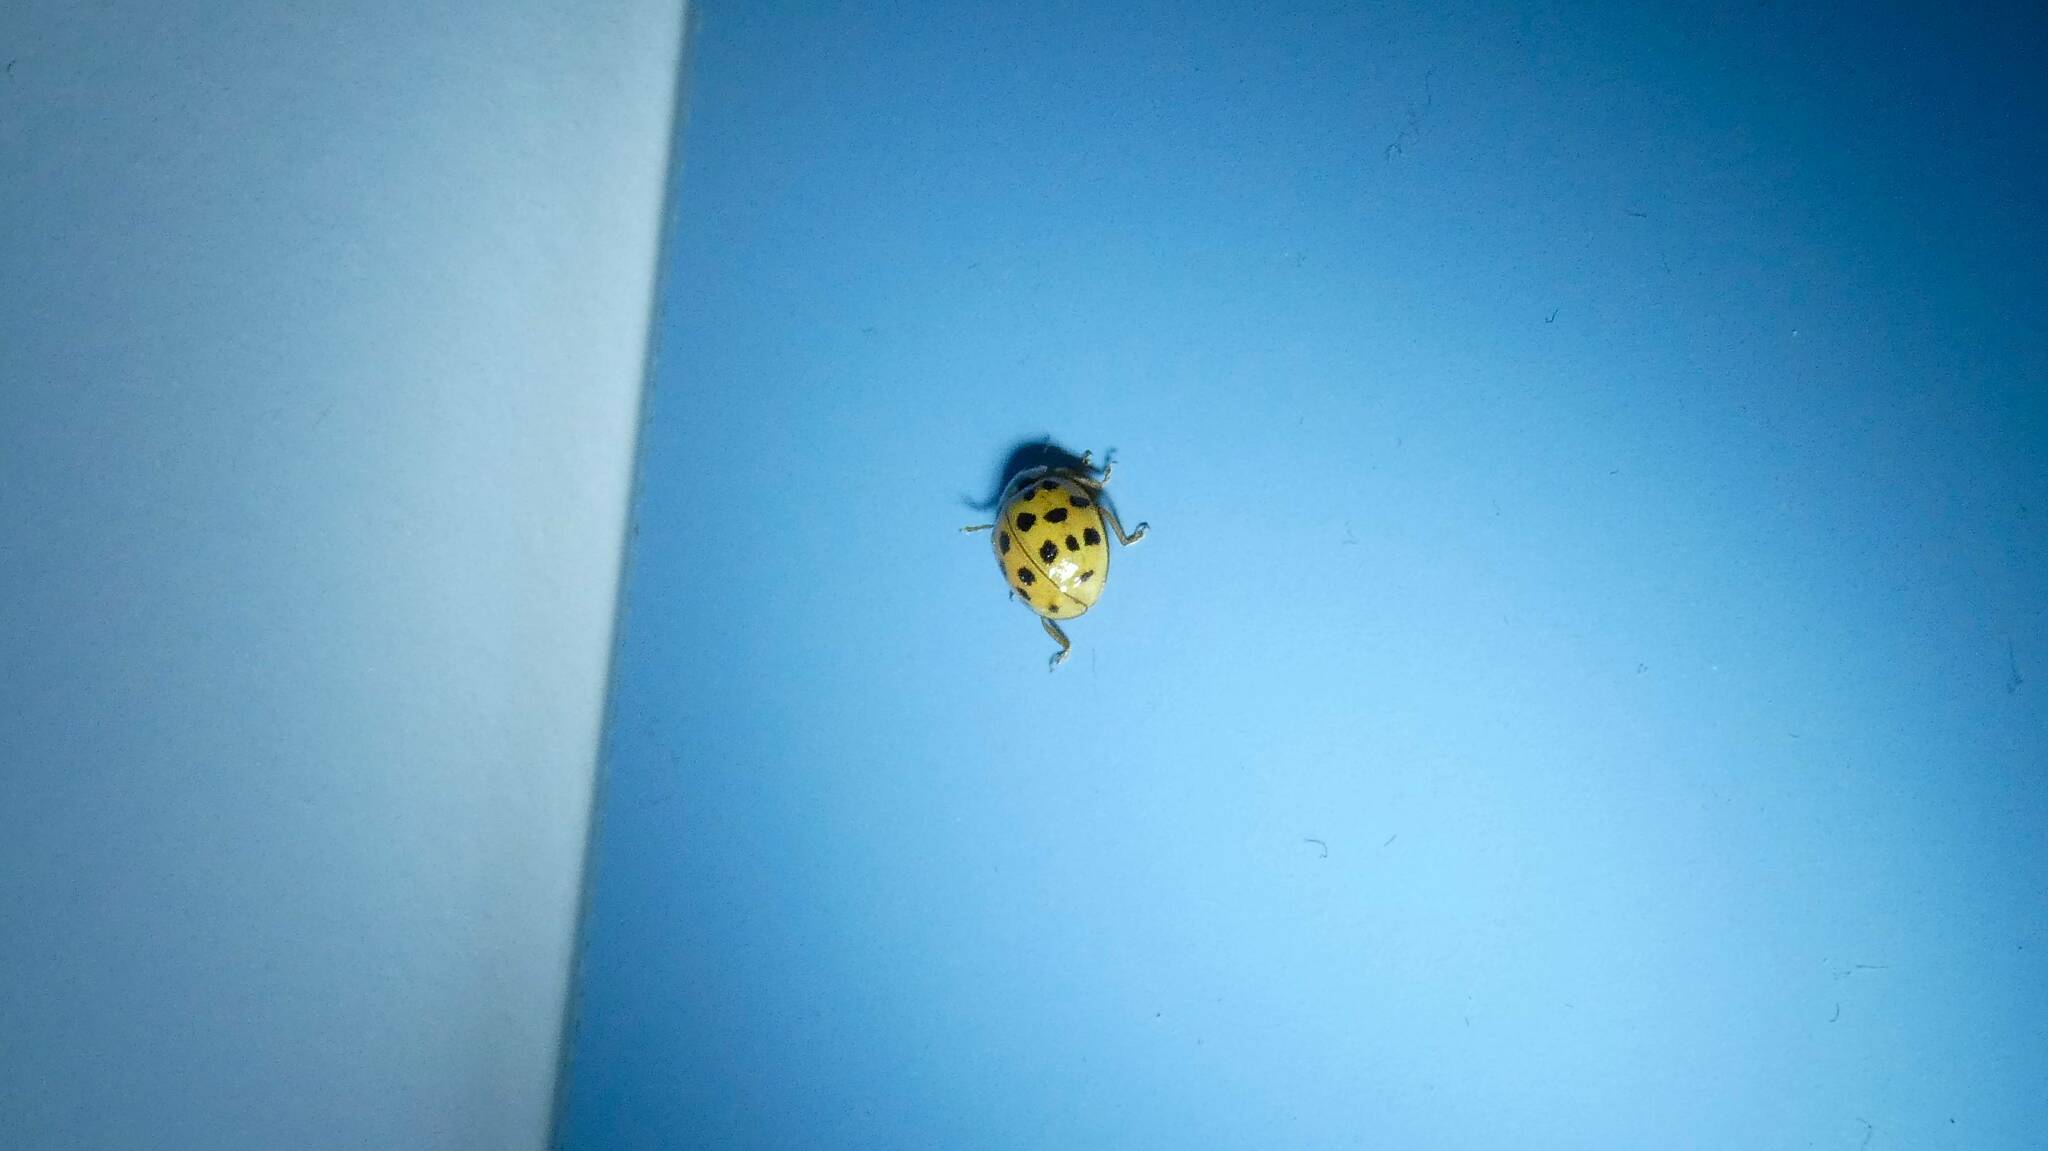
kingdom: Animalia
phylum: Arthropoda
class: Insecta
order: Coleoptera
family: Coccinellidae
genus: Harmonia
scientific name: Harmonia axyridis
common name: Harlequin ladybird
